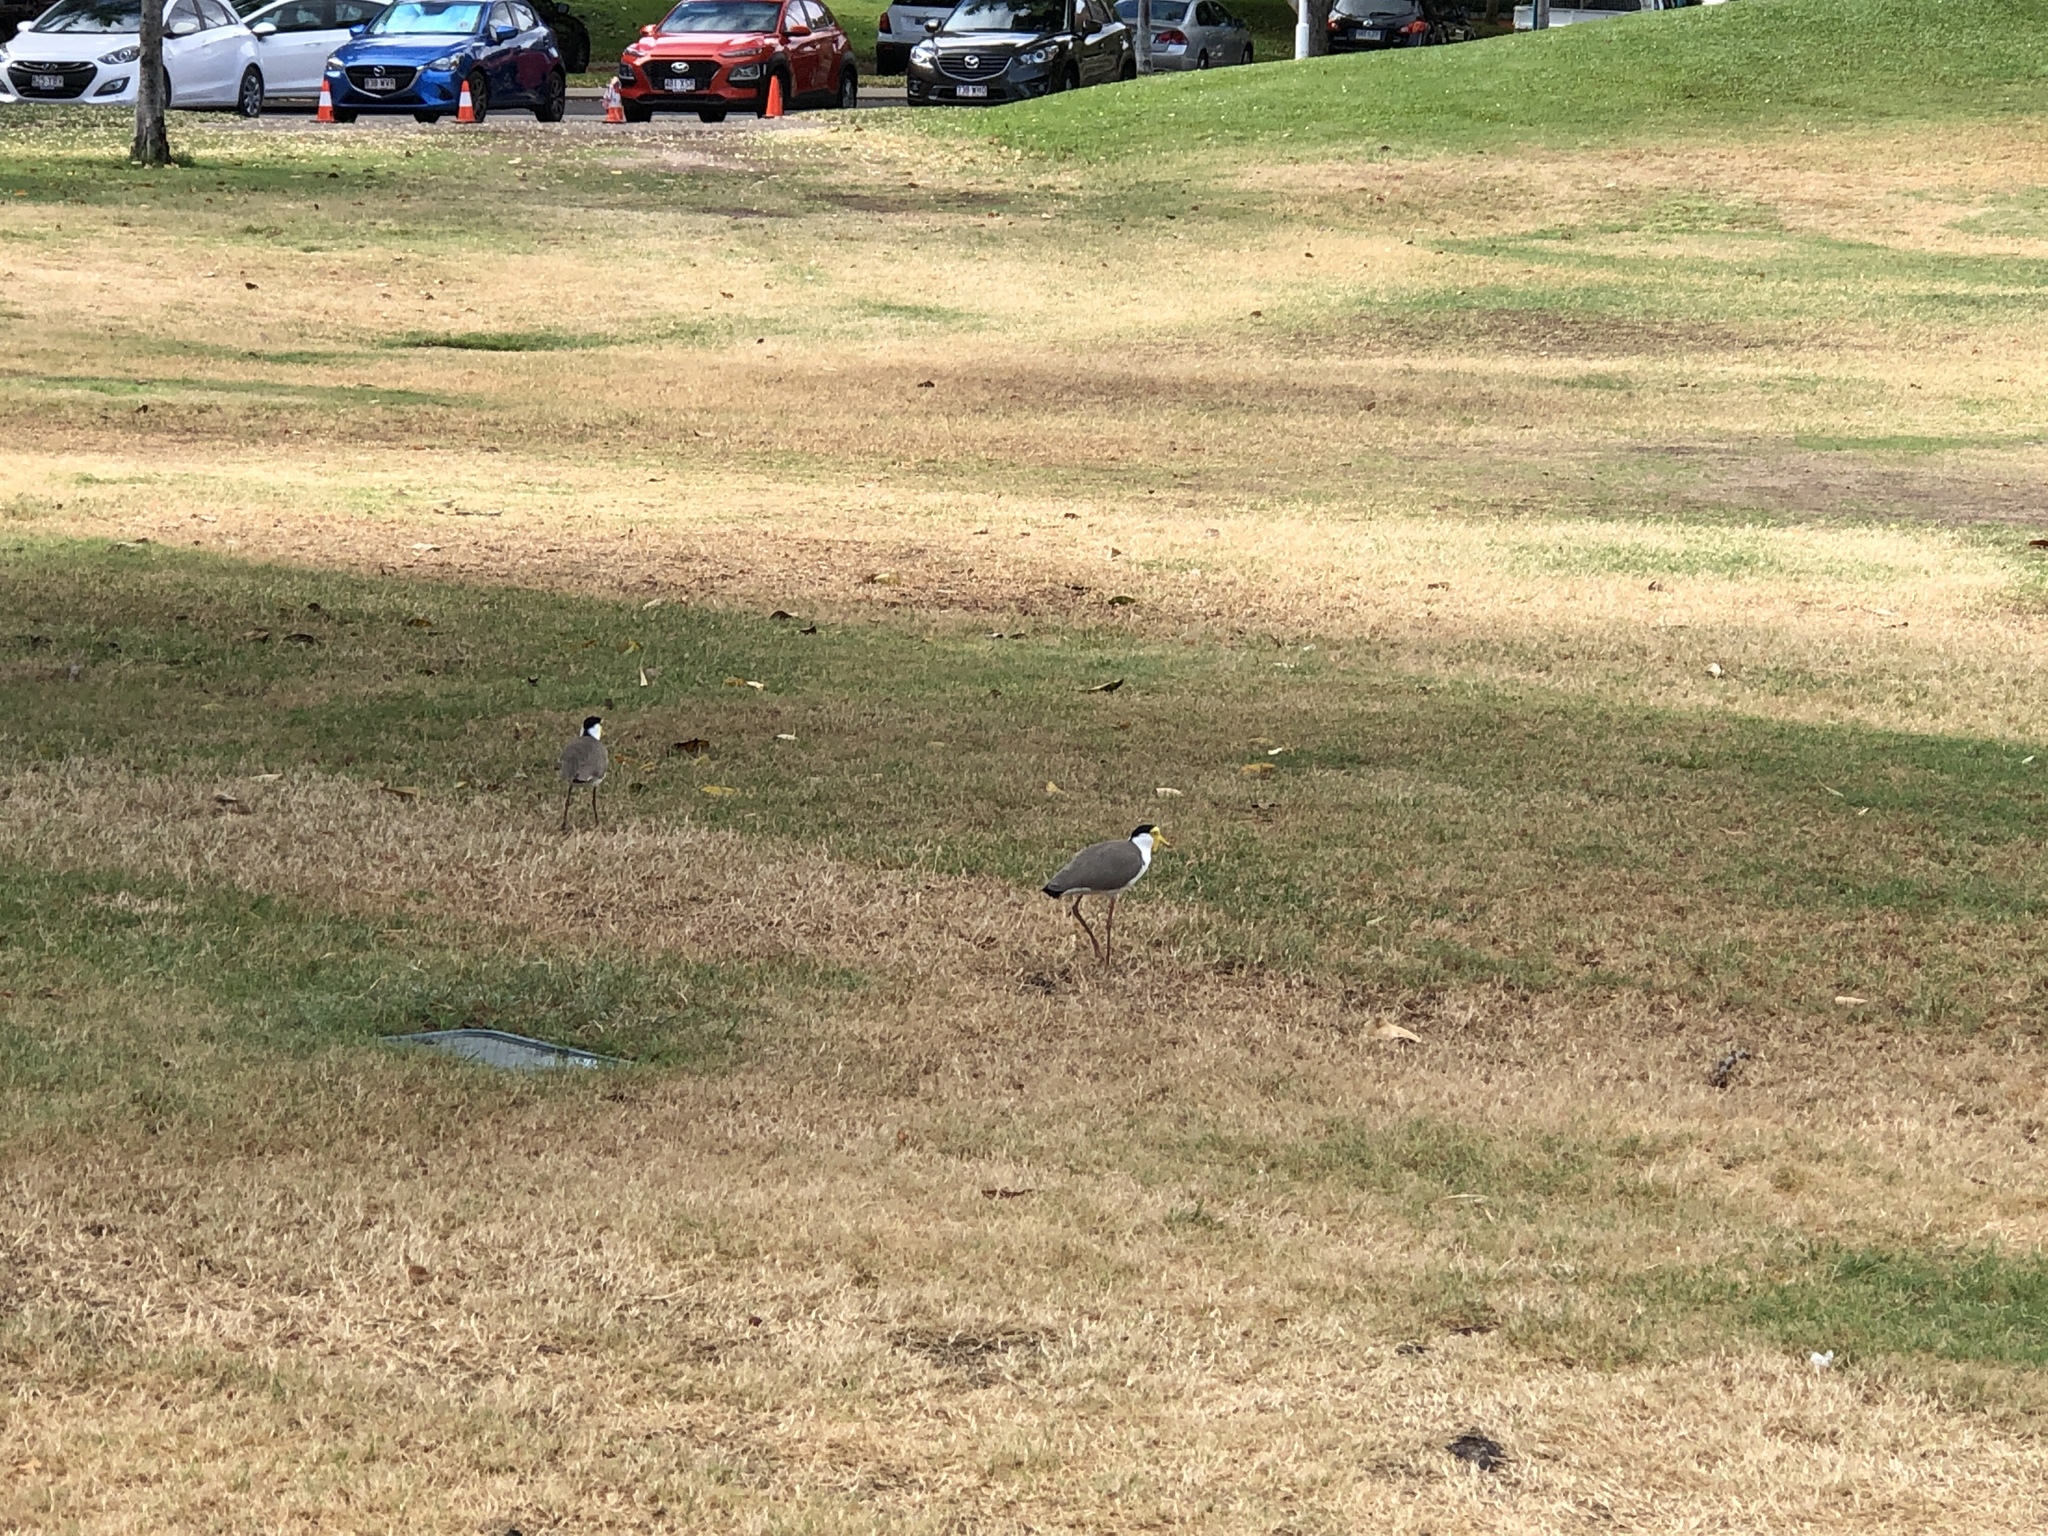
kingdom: Animalia
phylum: Chordata
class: Aves
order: Charadriiformes
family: Charadriidae
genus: Vanellus
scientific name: Vanellus miles
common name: Masked lapwing
